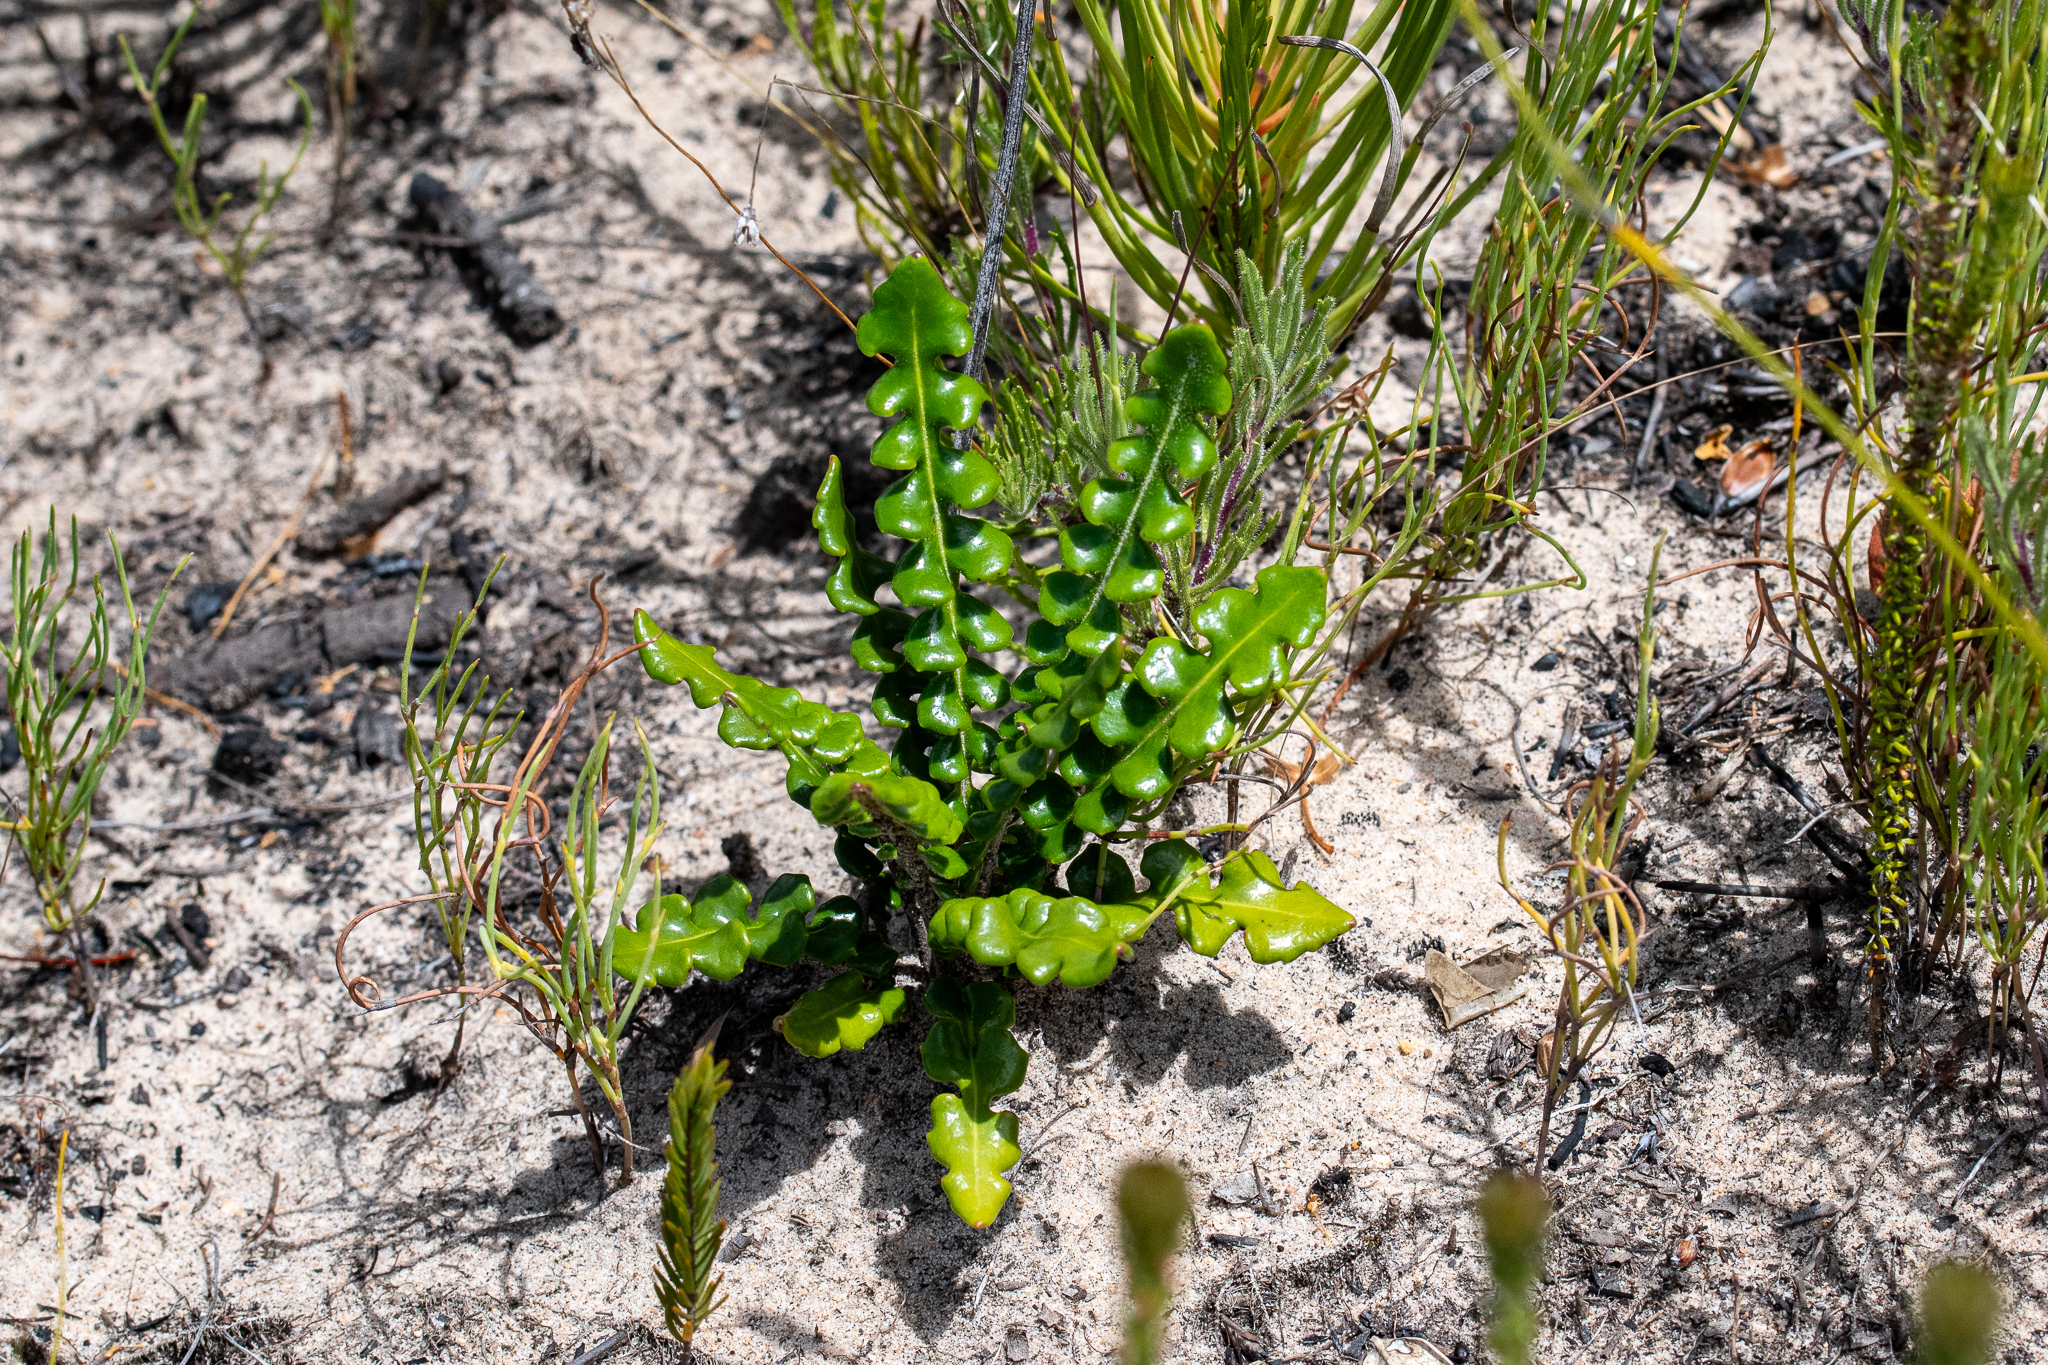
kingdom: Plantae
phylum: Tracheophyta
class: Magnoliopsida
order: Asterales
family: Asteraceae
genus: Gerbera
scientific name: Gerbera linnaei
